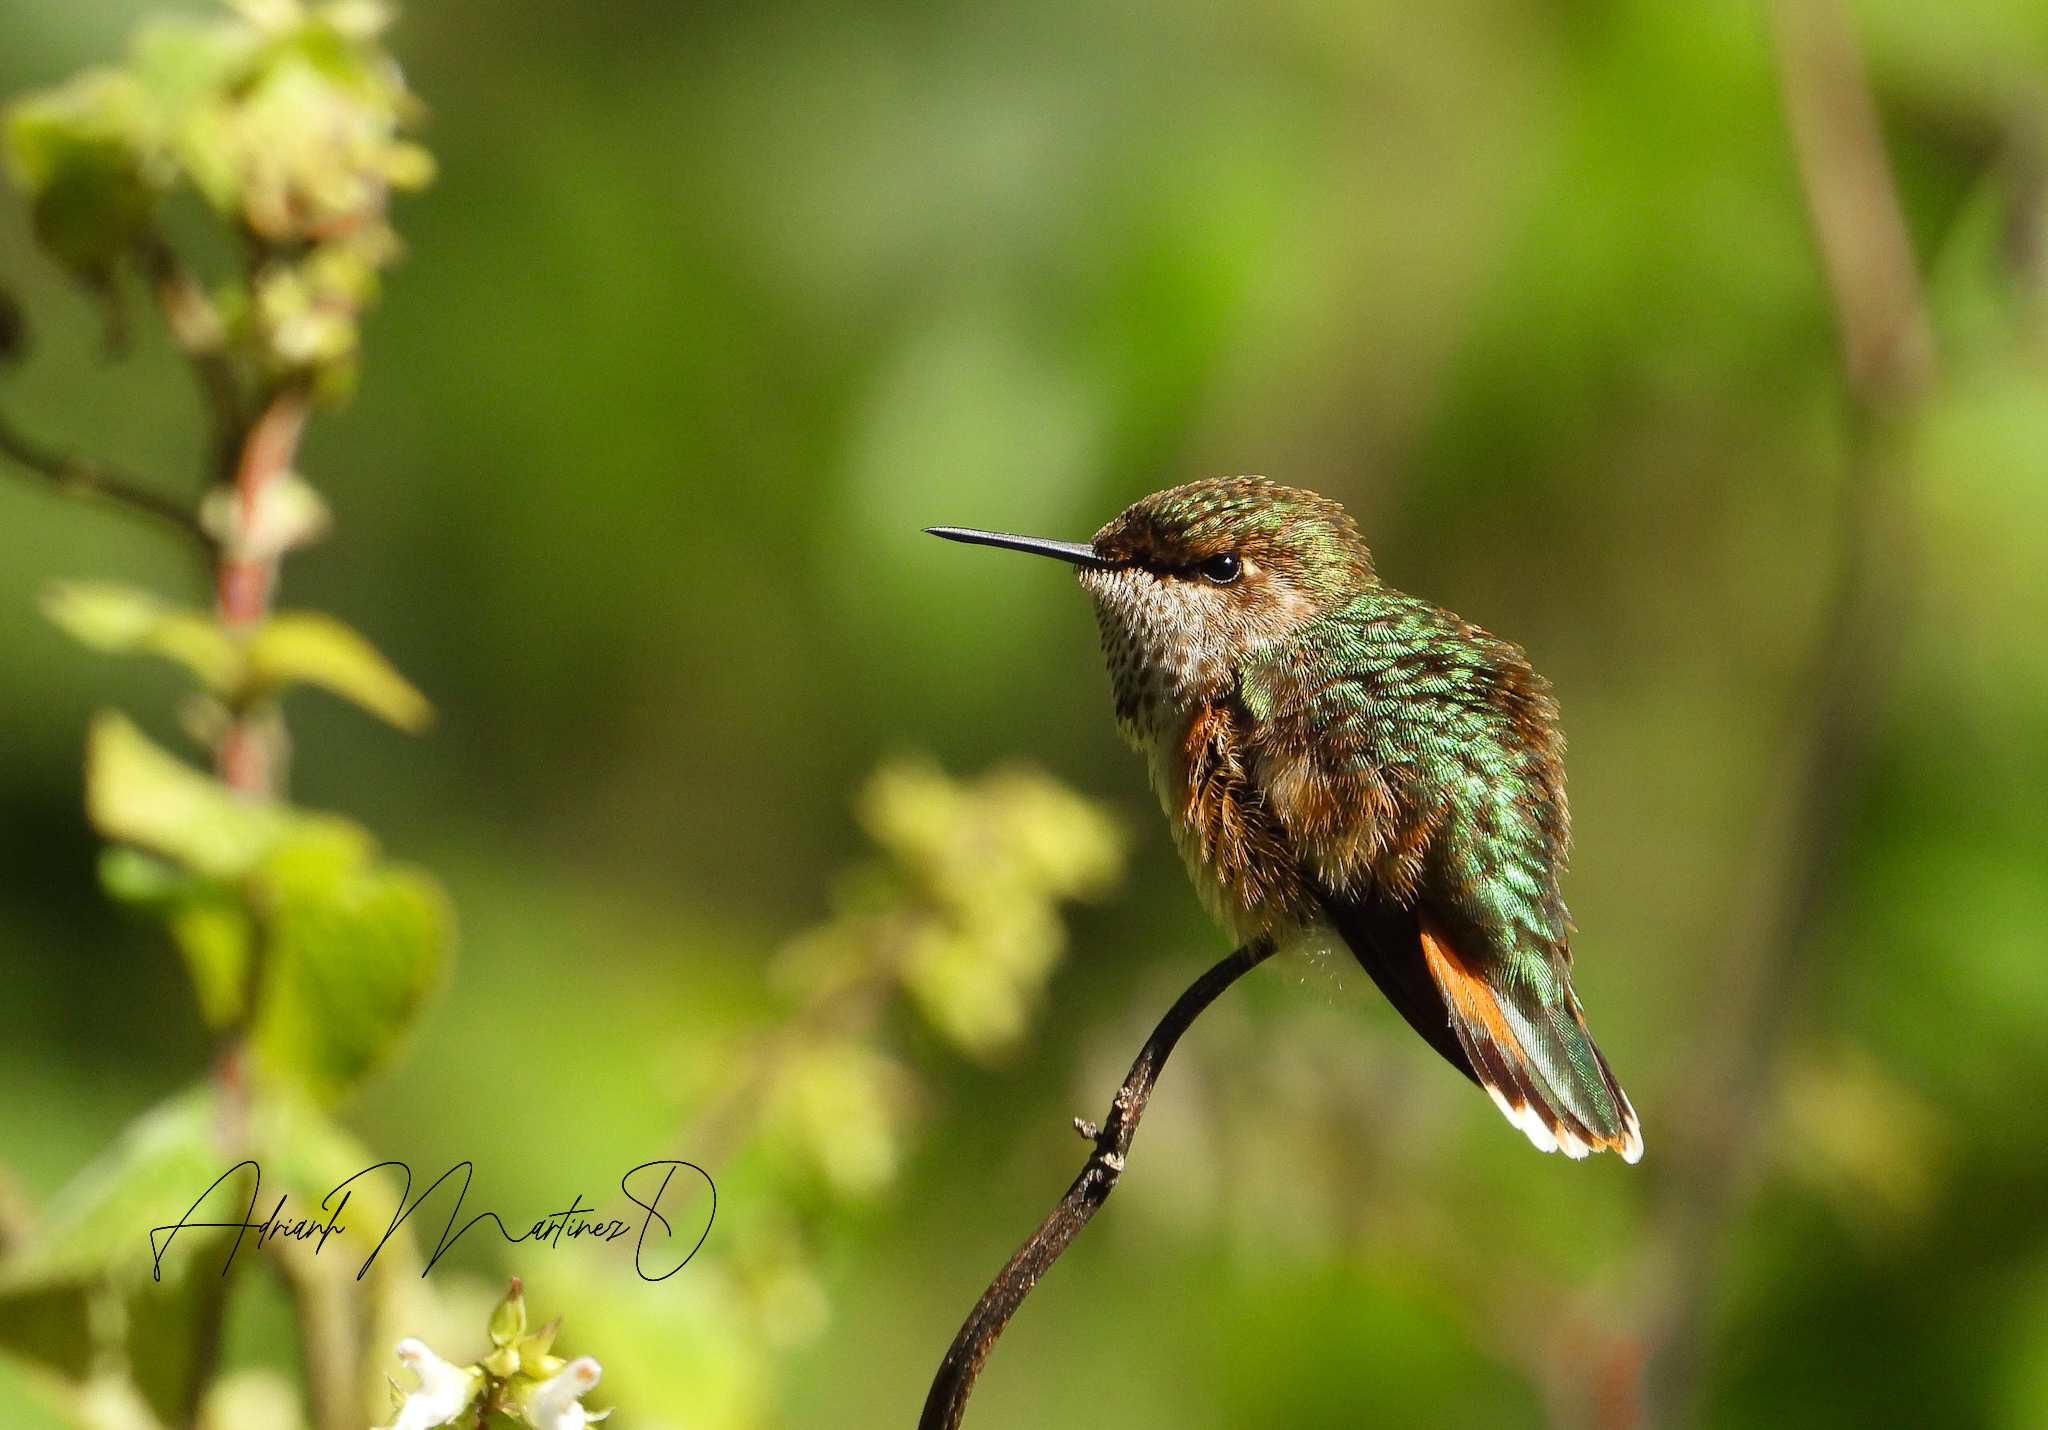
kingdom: Animalia
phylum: Chordata
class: Aves
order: Apodiformes
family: Trochilidae
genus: Selasphorus
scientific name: Selasphorus heloisa
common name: Bumblebee hummingbird
